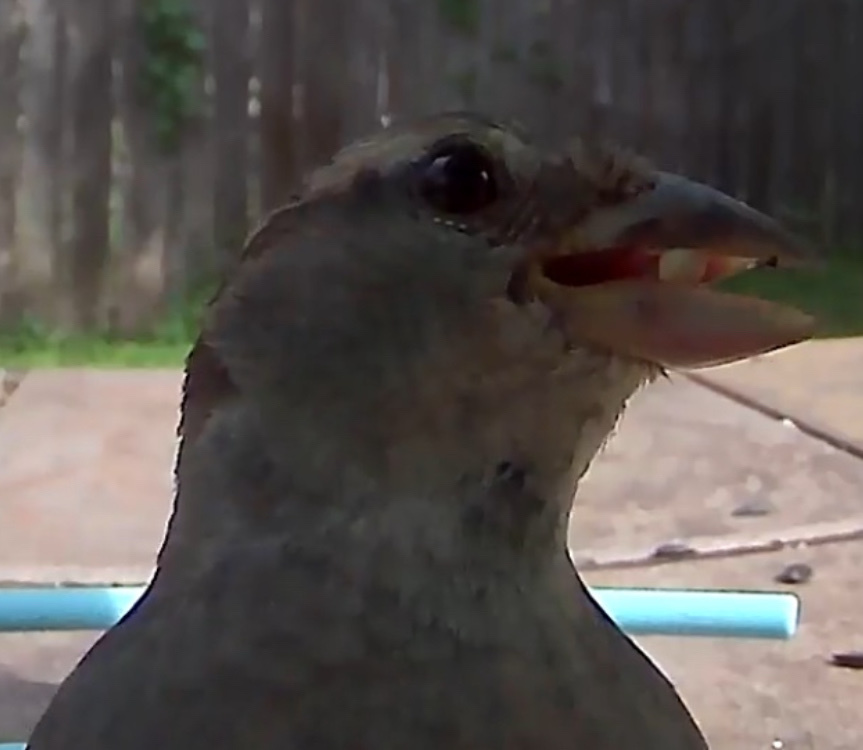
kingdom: Animalia
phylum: Chordata
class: Aves
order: Passeriformes
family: Passeridae
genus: Passer
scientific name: Passer domesticus
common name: House sparrow
